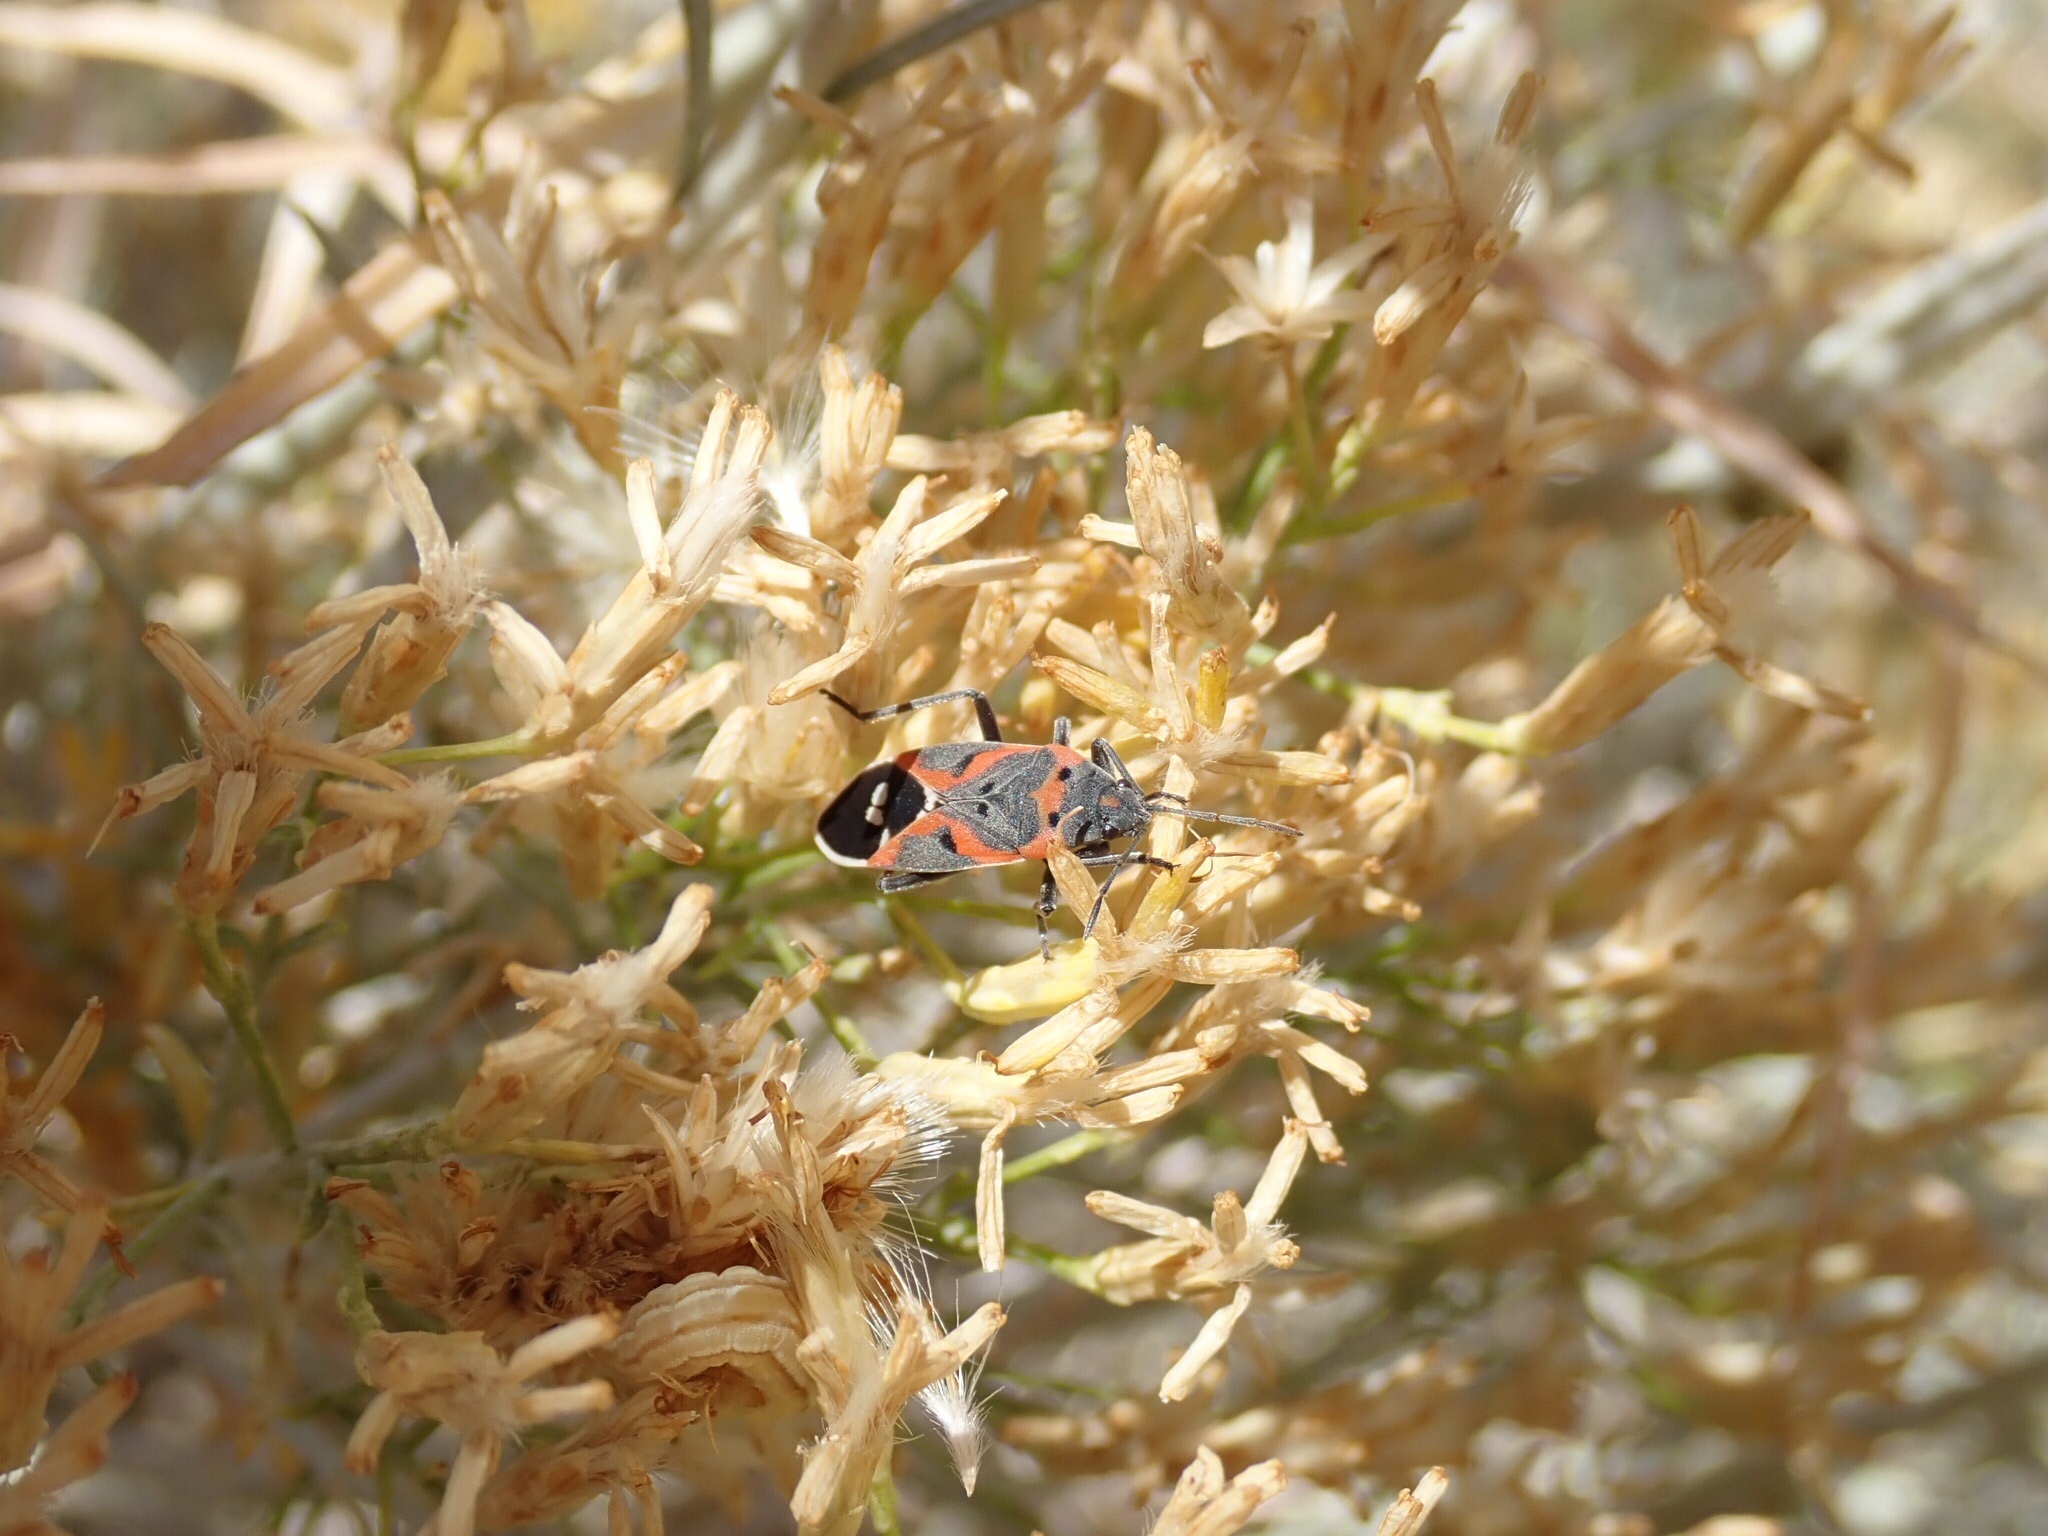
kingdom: Animalia
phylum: Arthropoda
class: Insecta
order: Hemiptera
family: Lygaeidae
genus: Lygaeus
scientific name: Lygaeus kalmii
